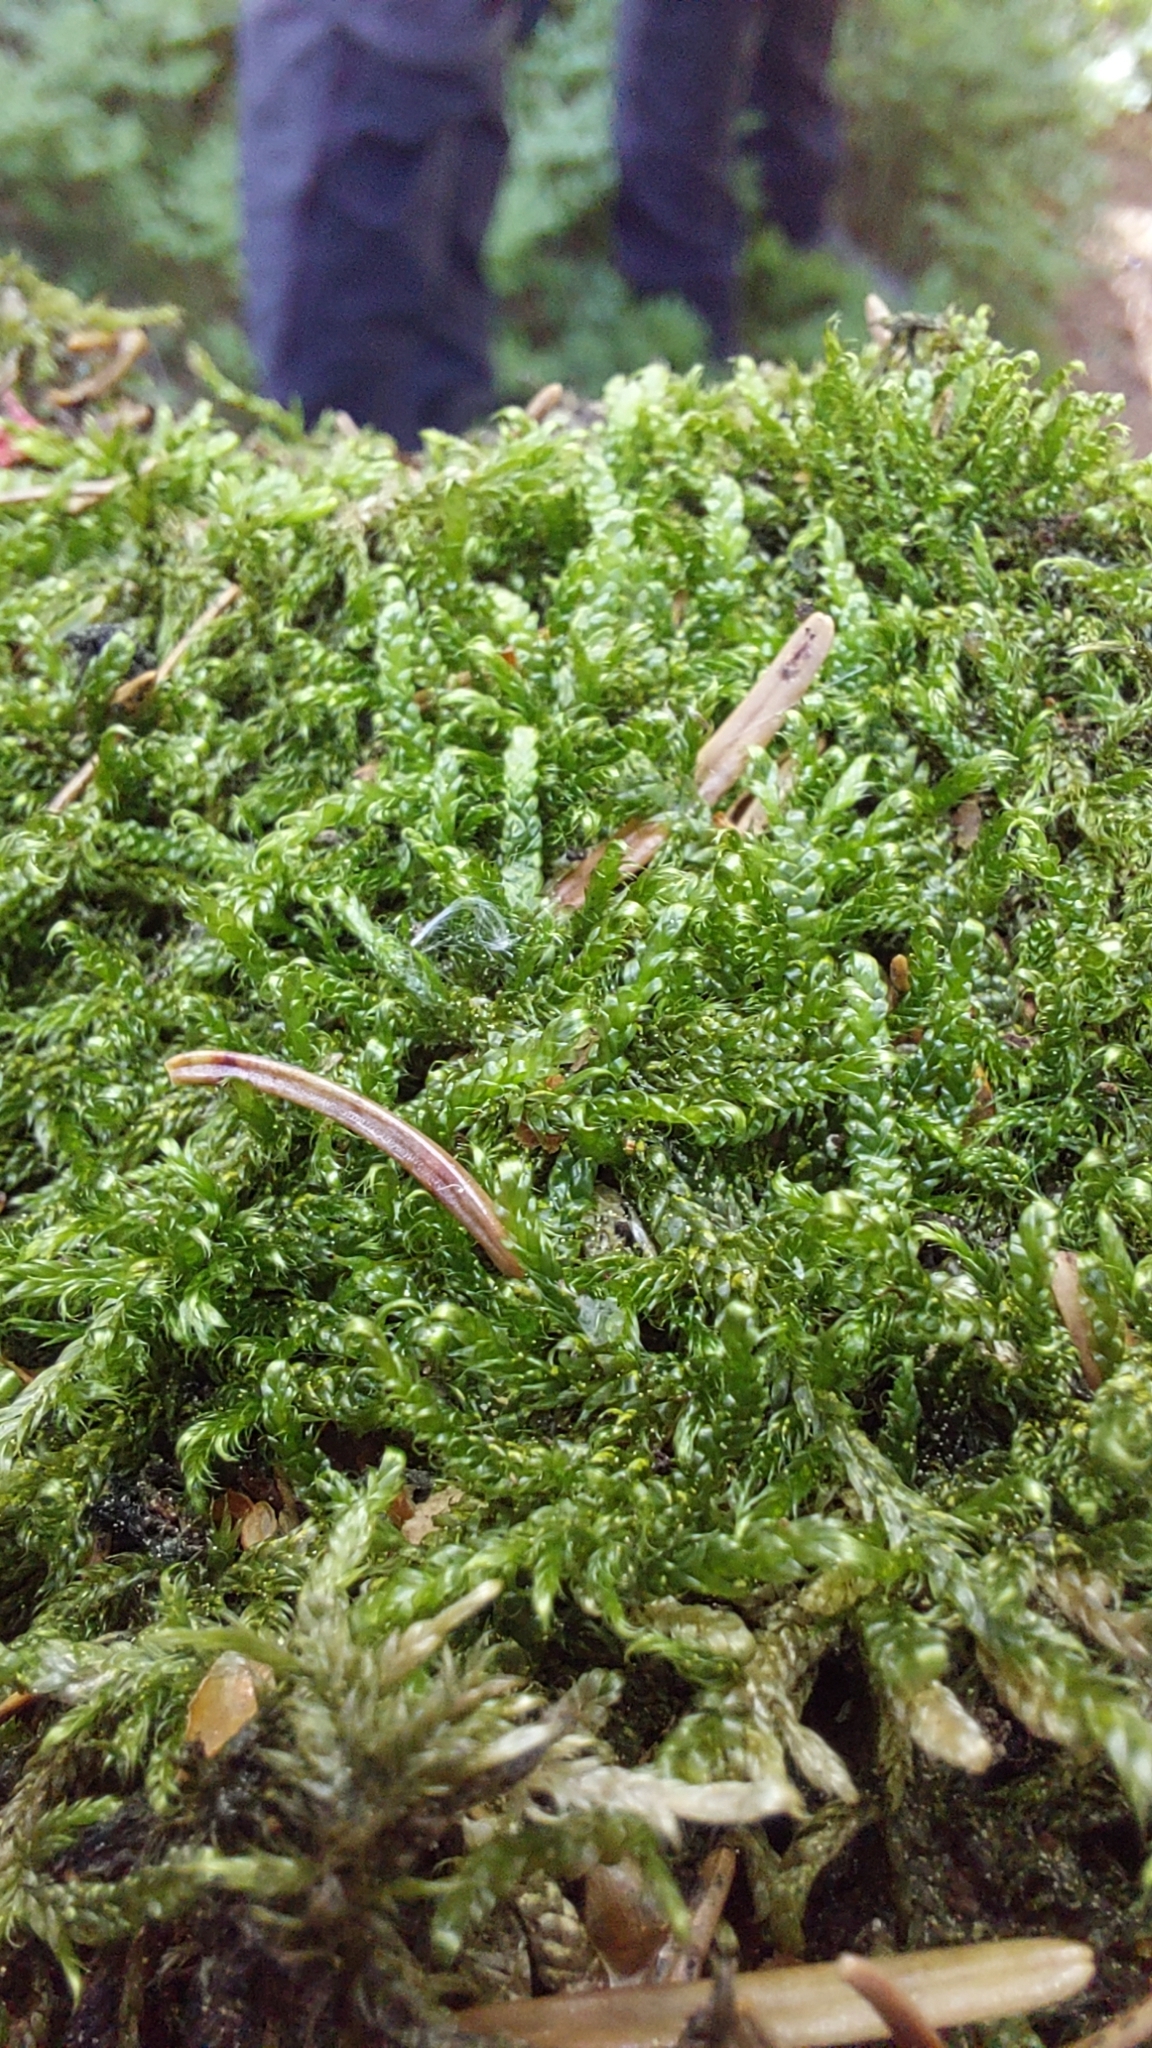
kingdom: Plantae
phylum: Bryophyta
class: Bryopsida
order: Hypnales
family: Hypnaceae
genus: Hypnum
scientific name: Hypnum cupressiforme
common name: Cypress-leaved plait-moss
